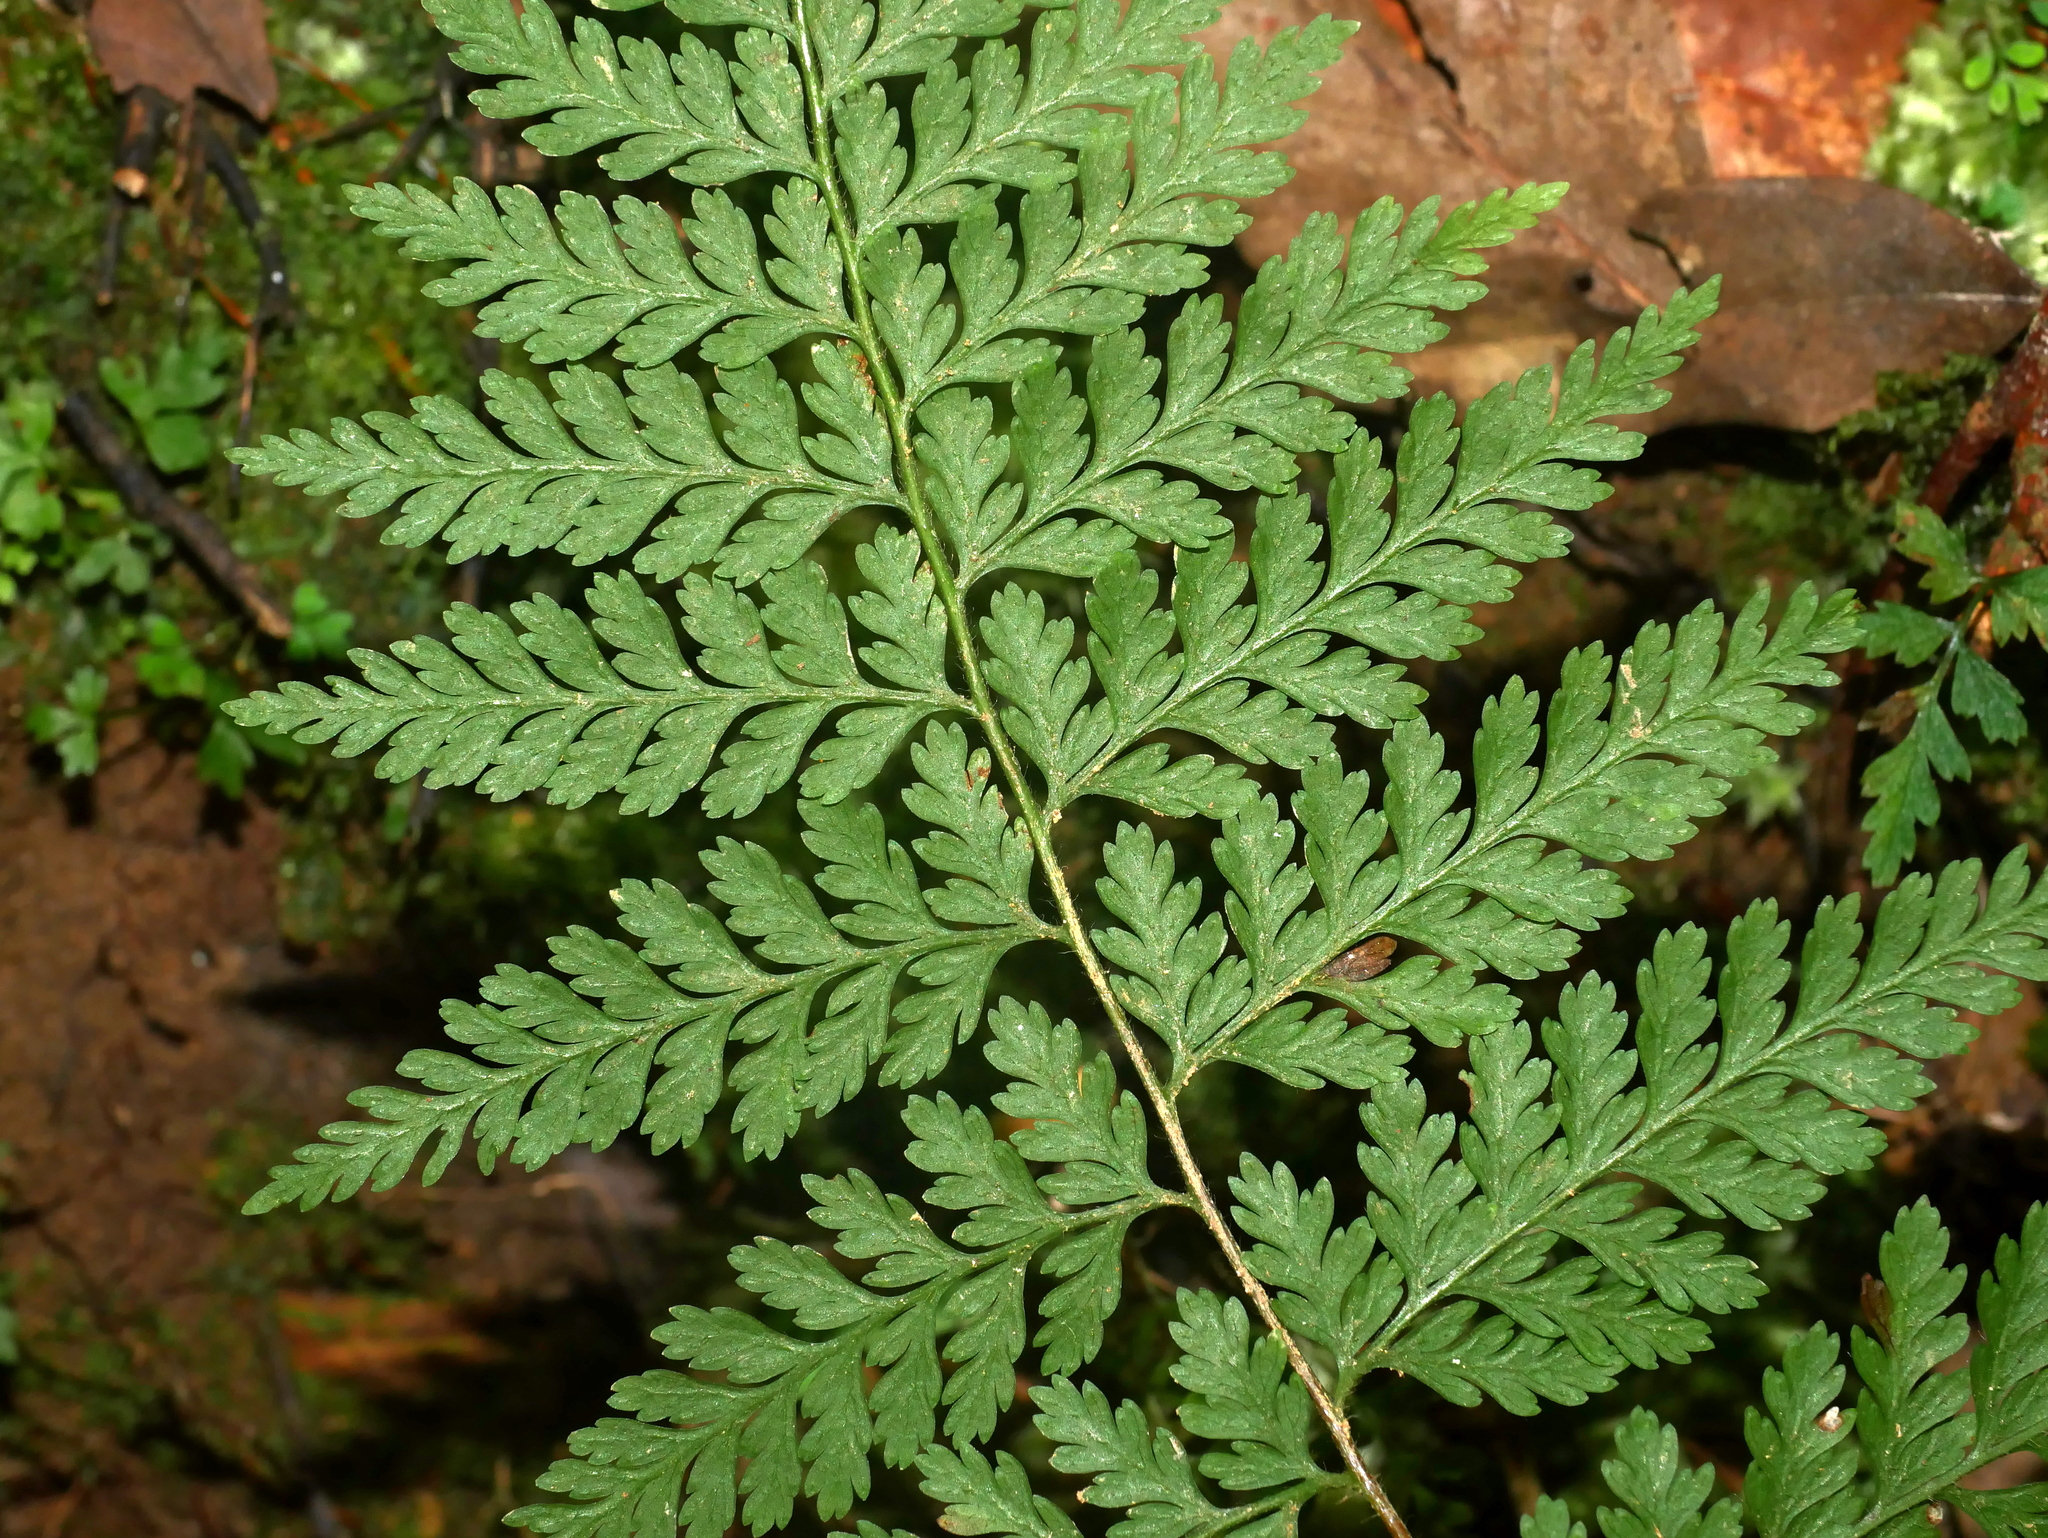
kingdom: Plantae
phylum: Tracheophyta
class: Polypodiopsida
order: Polypodiales
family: Dennstaedtiaceae
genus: Sitobolium
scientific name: Sitobolium zeylanicum
